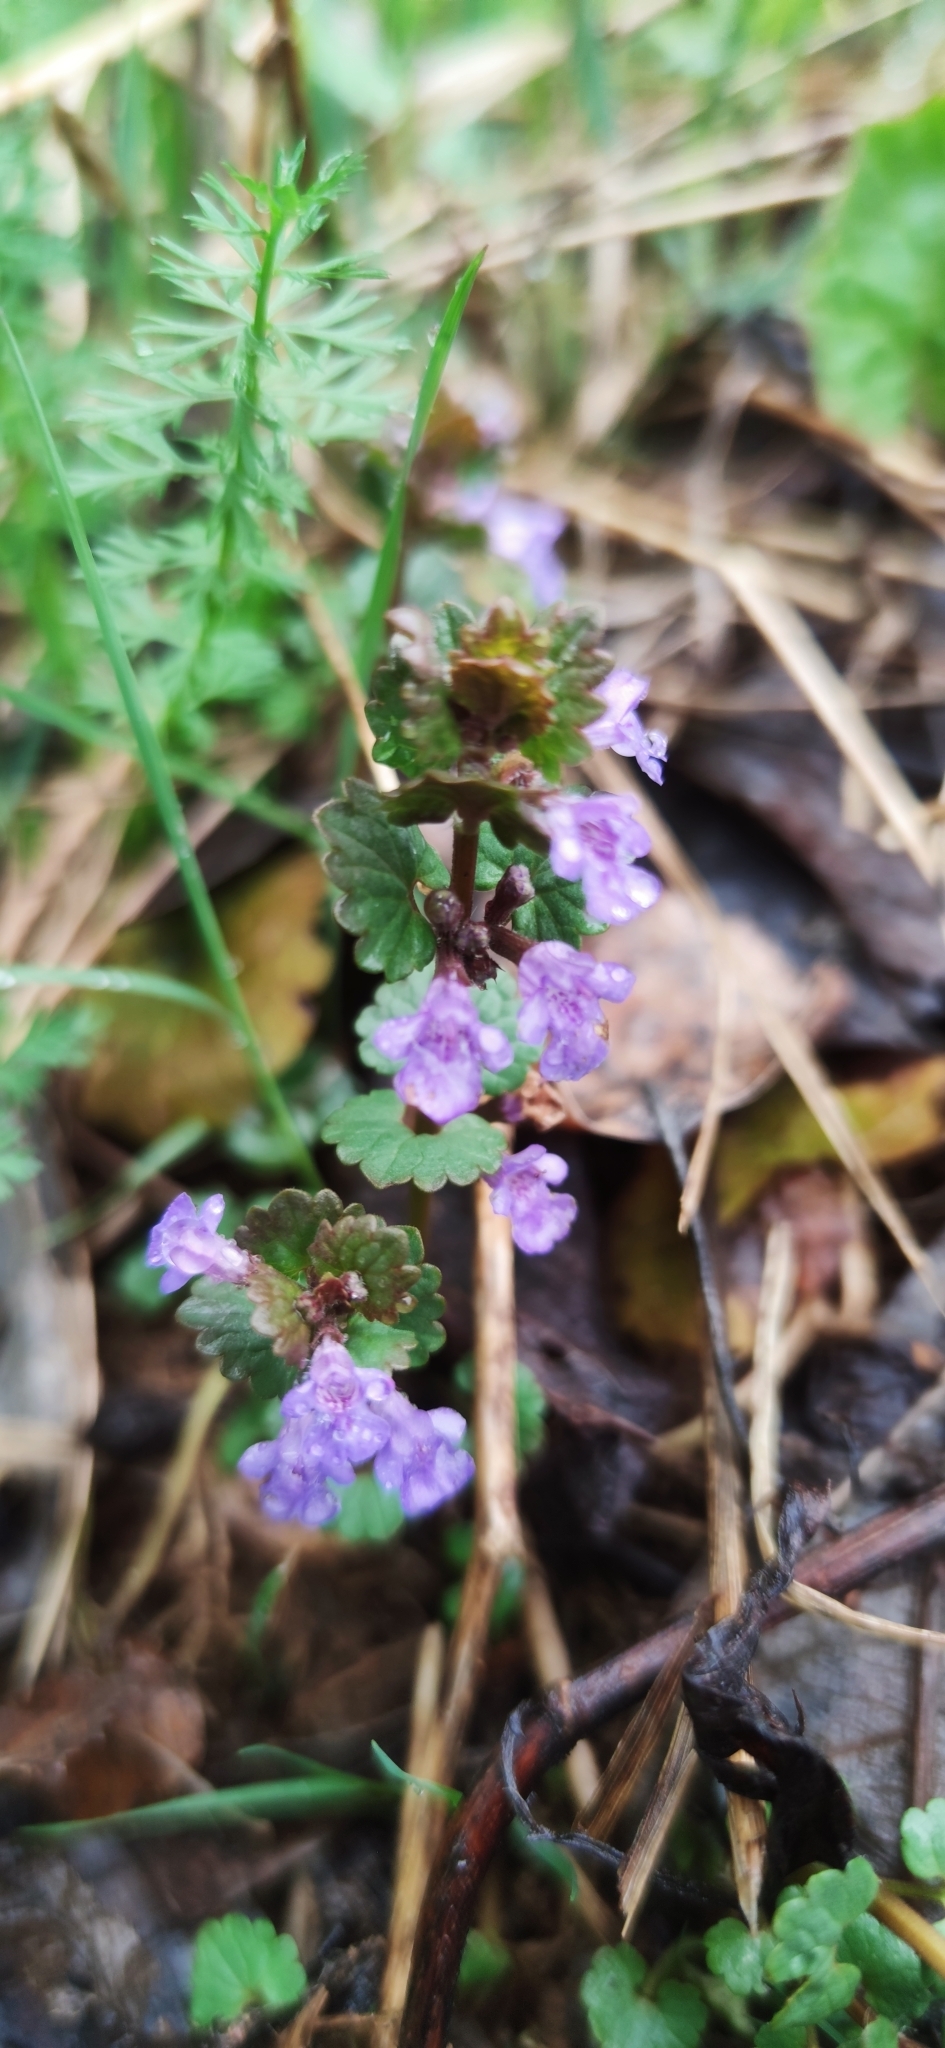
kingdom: Plantae
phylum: Tracheophyta
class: Magnoliopsida
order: Lamiales
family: Lamiaceae
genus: Glechoma
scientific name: Glechoma hederacea
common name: Ground ivy
